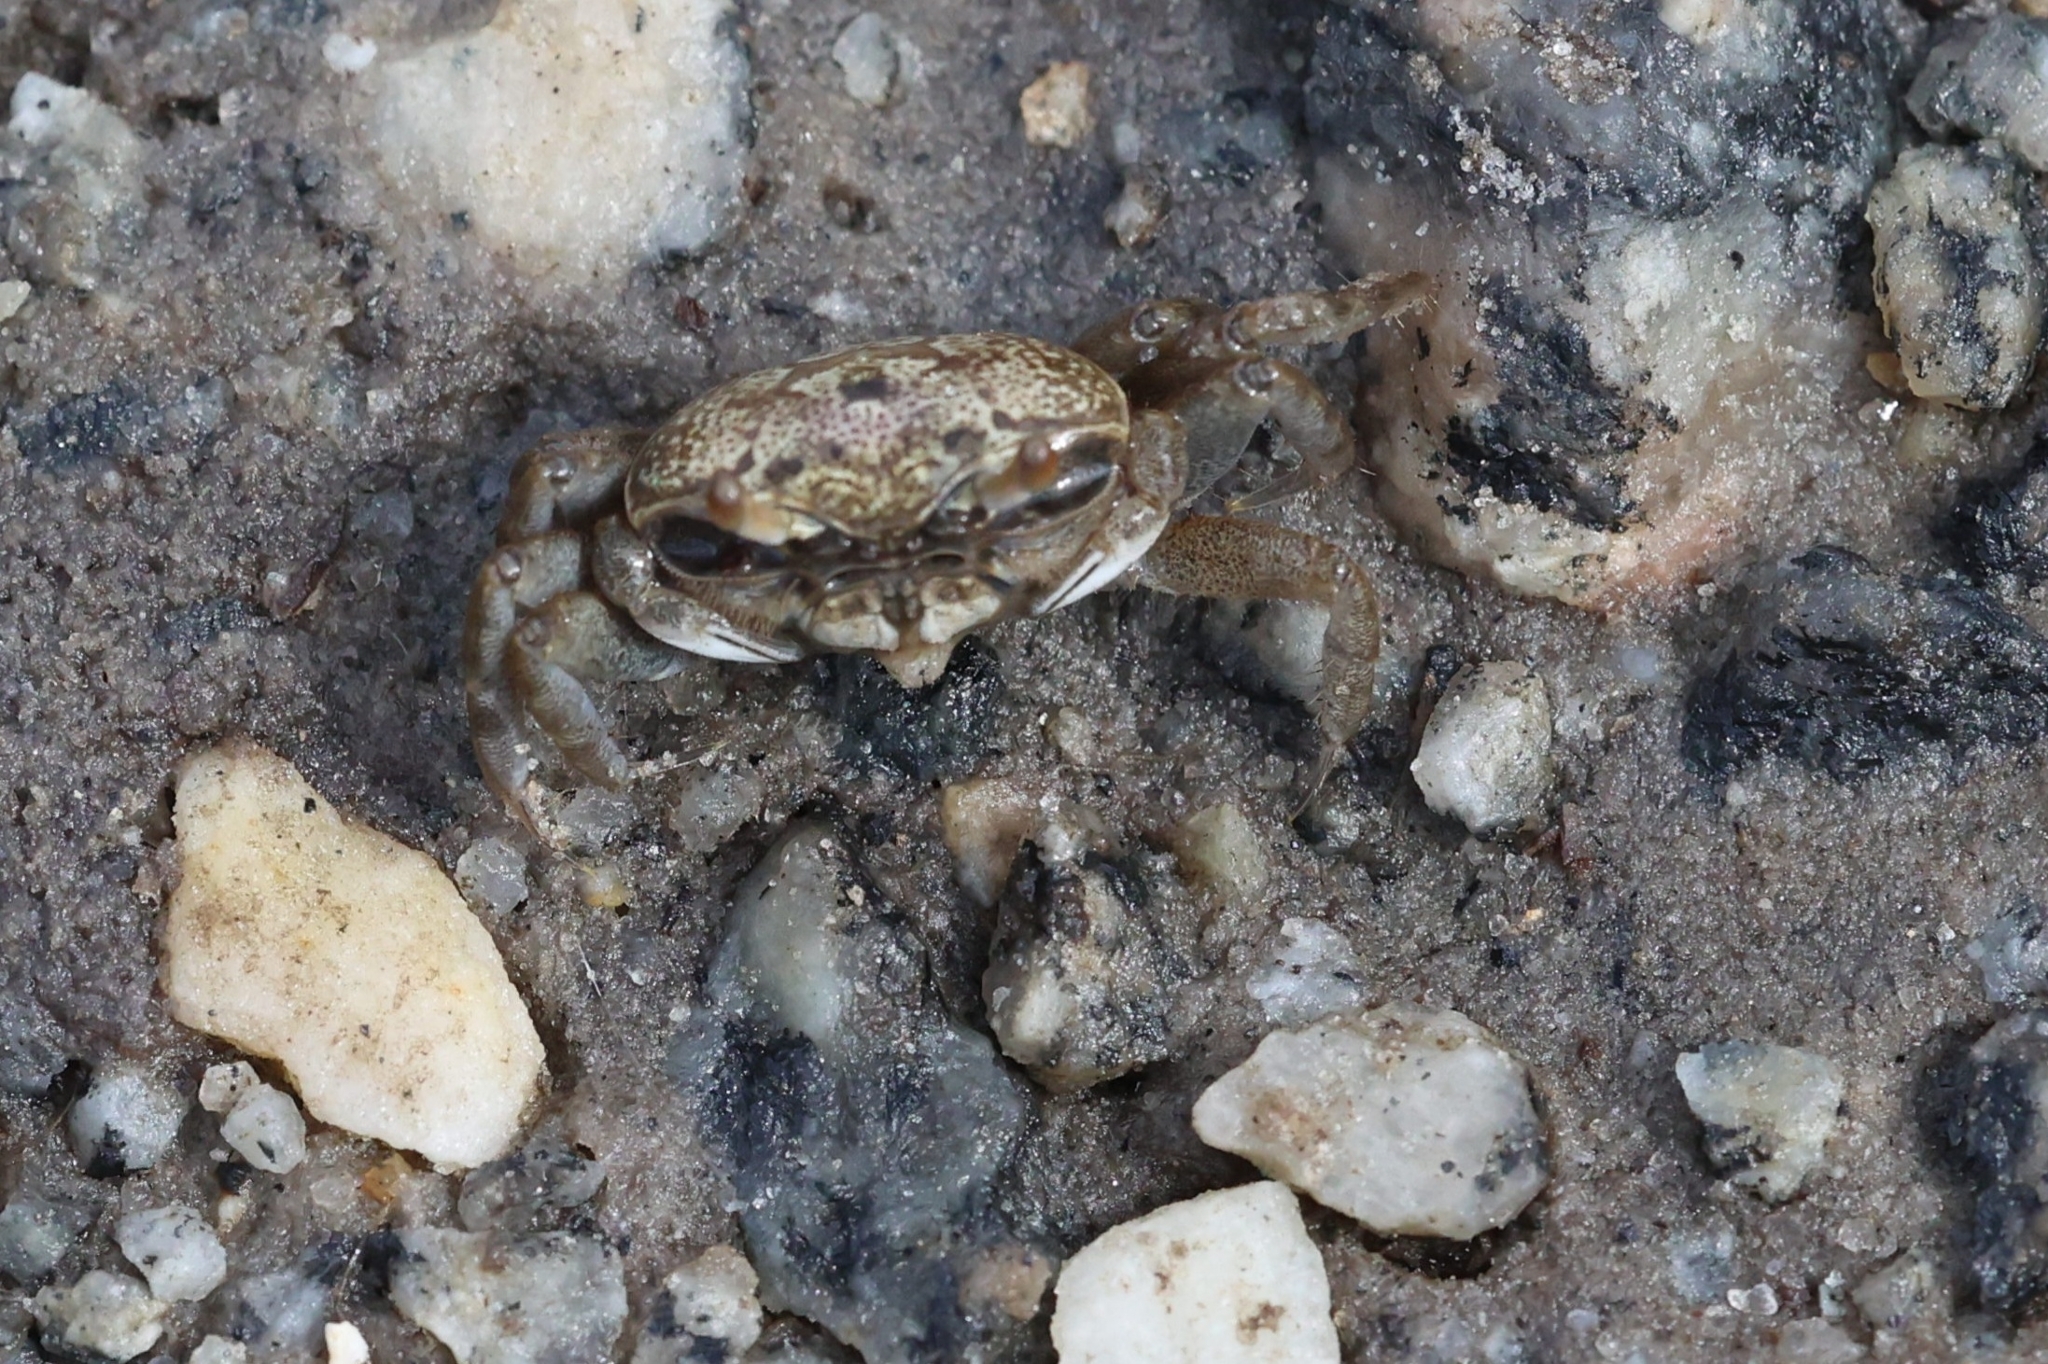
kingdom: Animalia
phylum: Arthropoda
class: Malacostraca
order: Decapoda
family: Ocypodidae
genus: Leptuca
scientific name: Leptuca pugilator
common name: Atlantic sand fiddler crab
